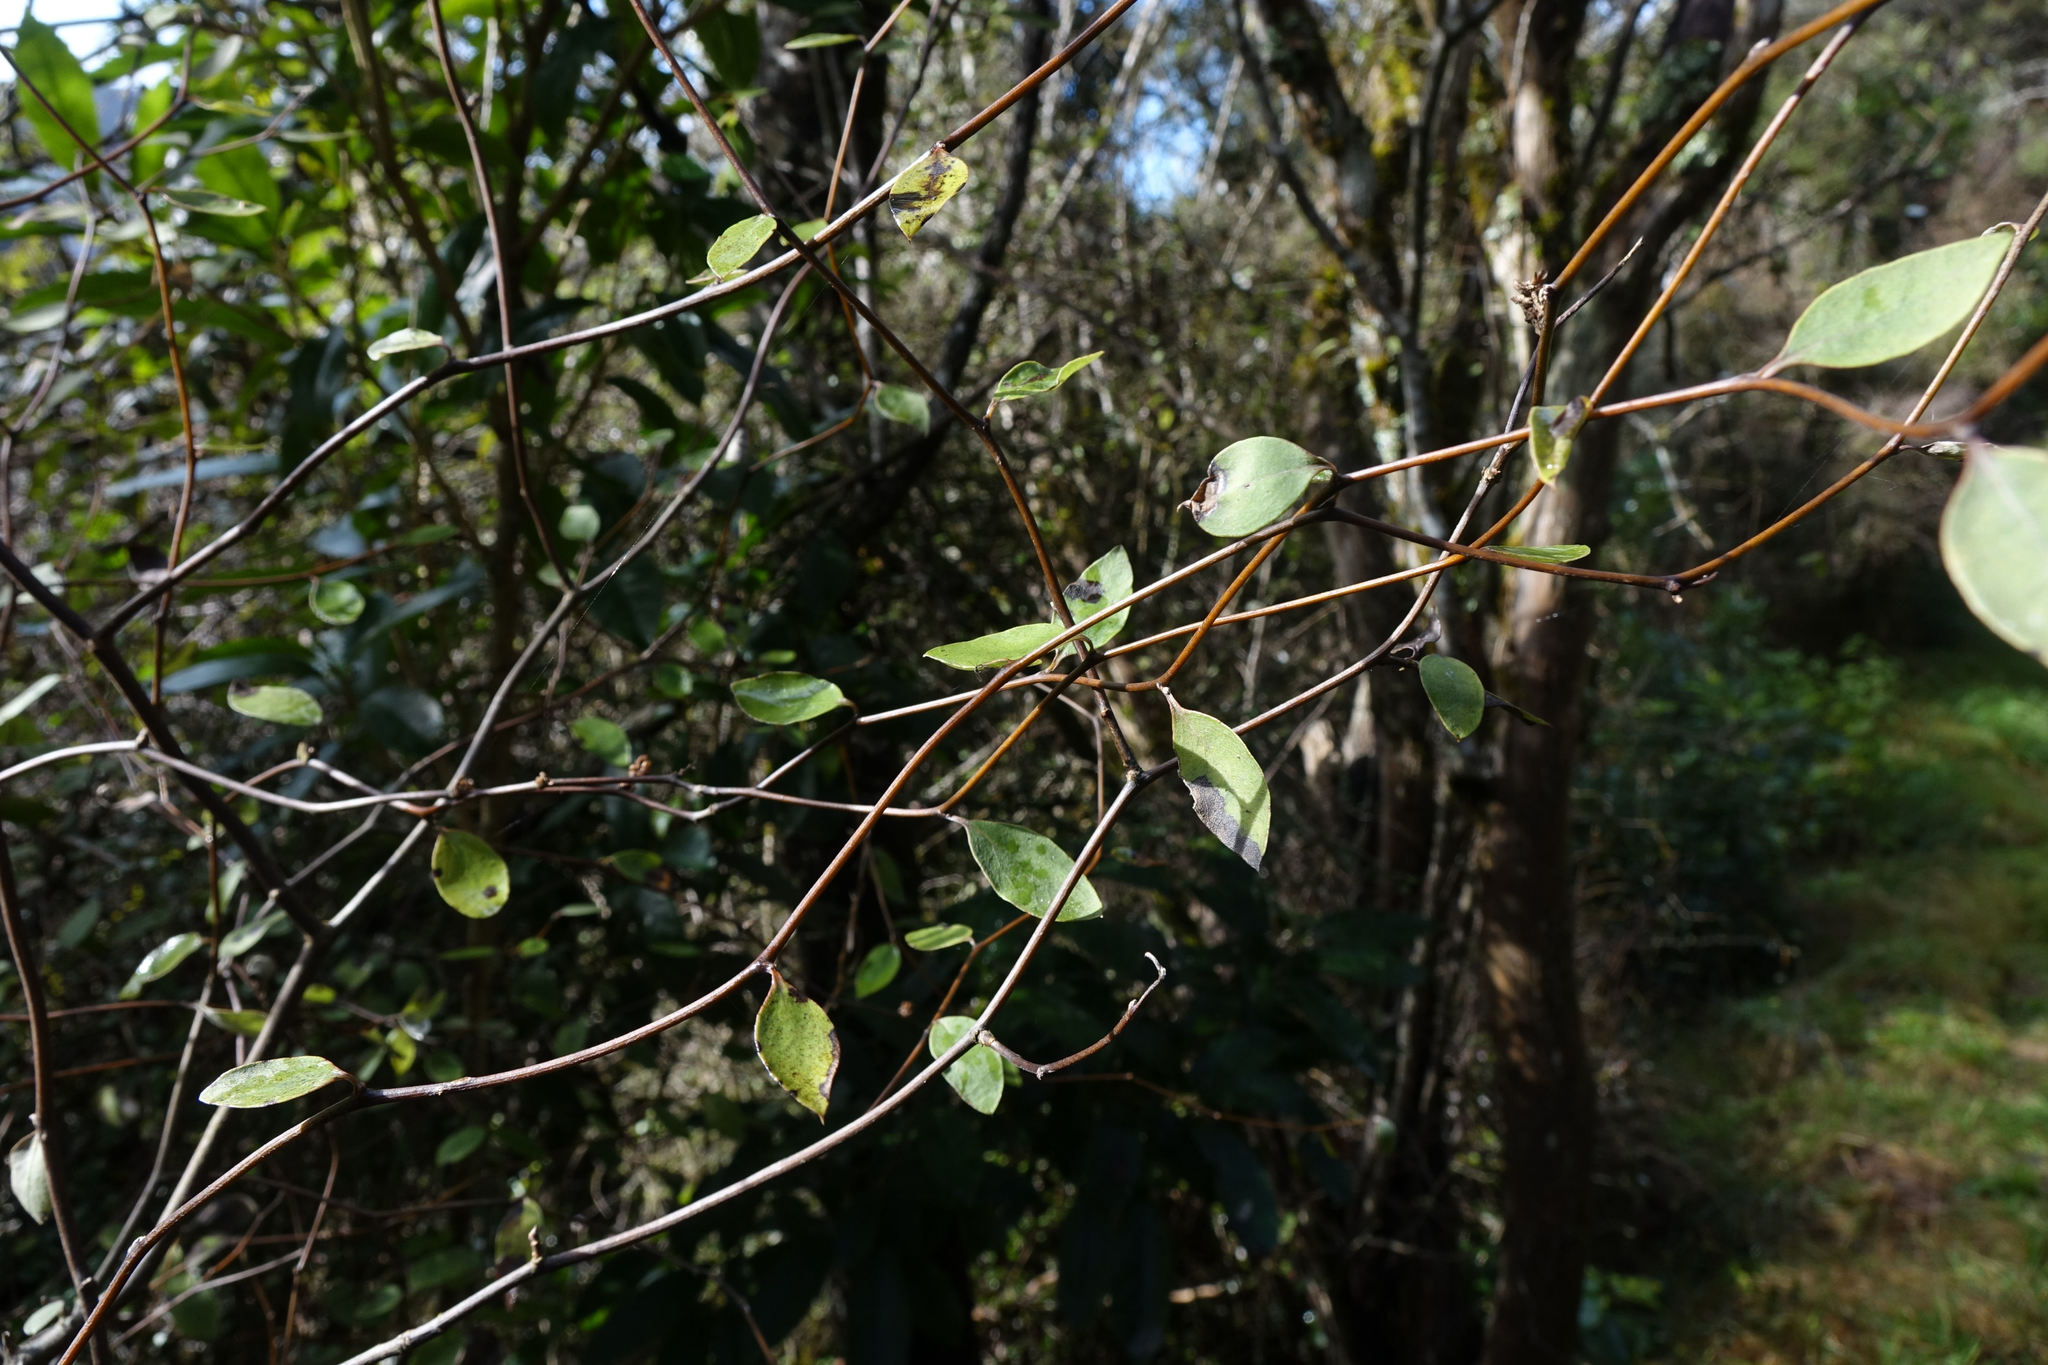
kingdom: Plantae
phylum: Tracheophyta
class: Magnoliopsida
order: Asterales
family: Asteraceae
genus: Olearia
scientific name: Olearia fragrantissima
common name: Fragrant tree daisy
